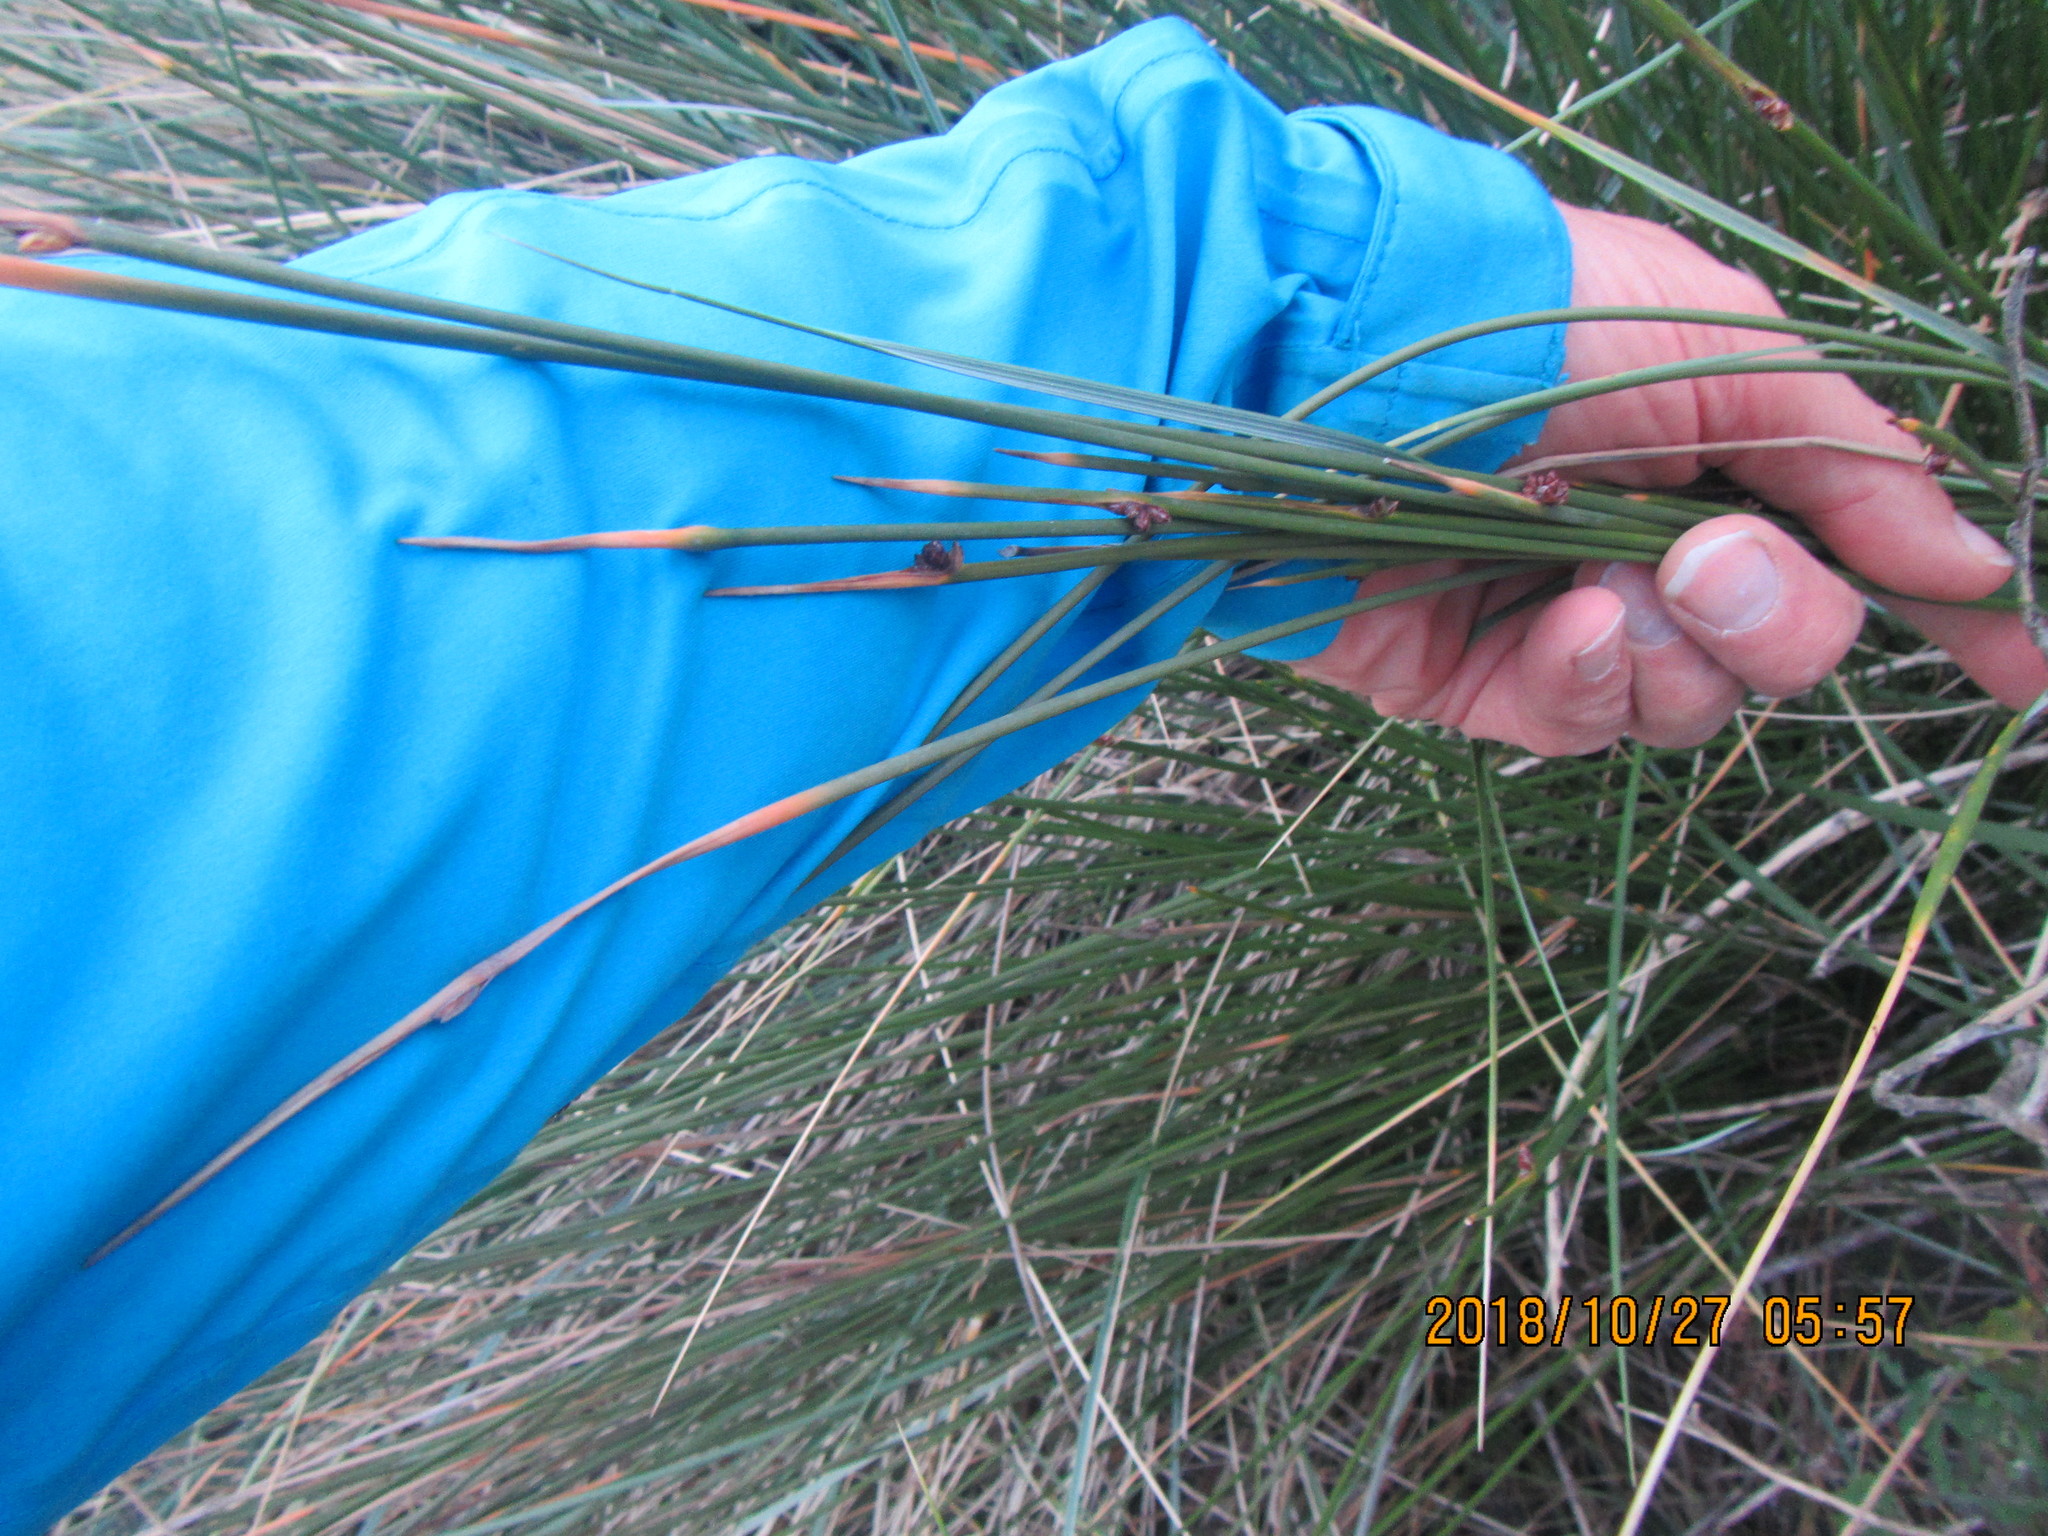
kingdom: Plantae
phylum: Tracheophyta
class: Liliopsida
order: Poales
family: Cyperaceae
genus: Ficinia
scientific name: Ficinia nodosa
